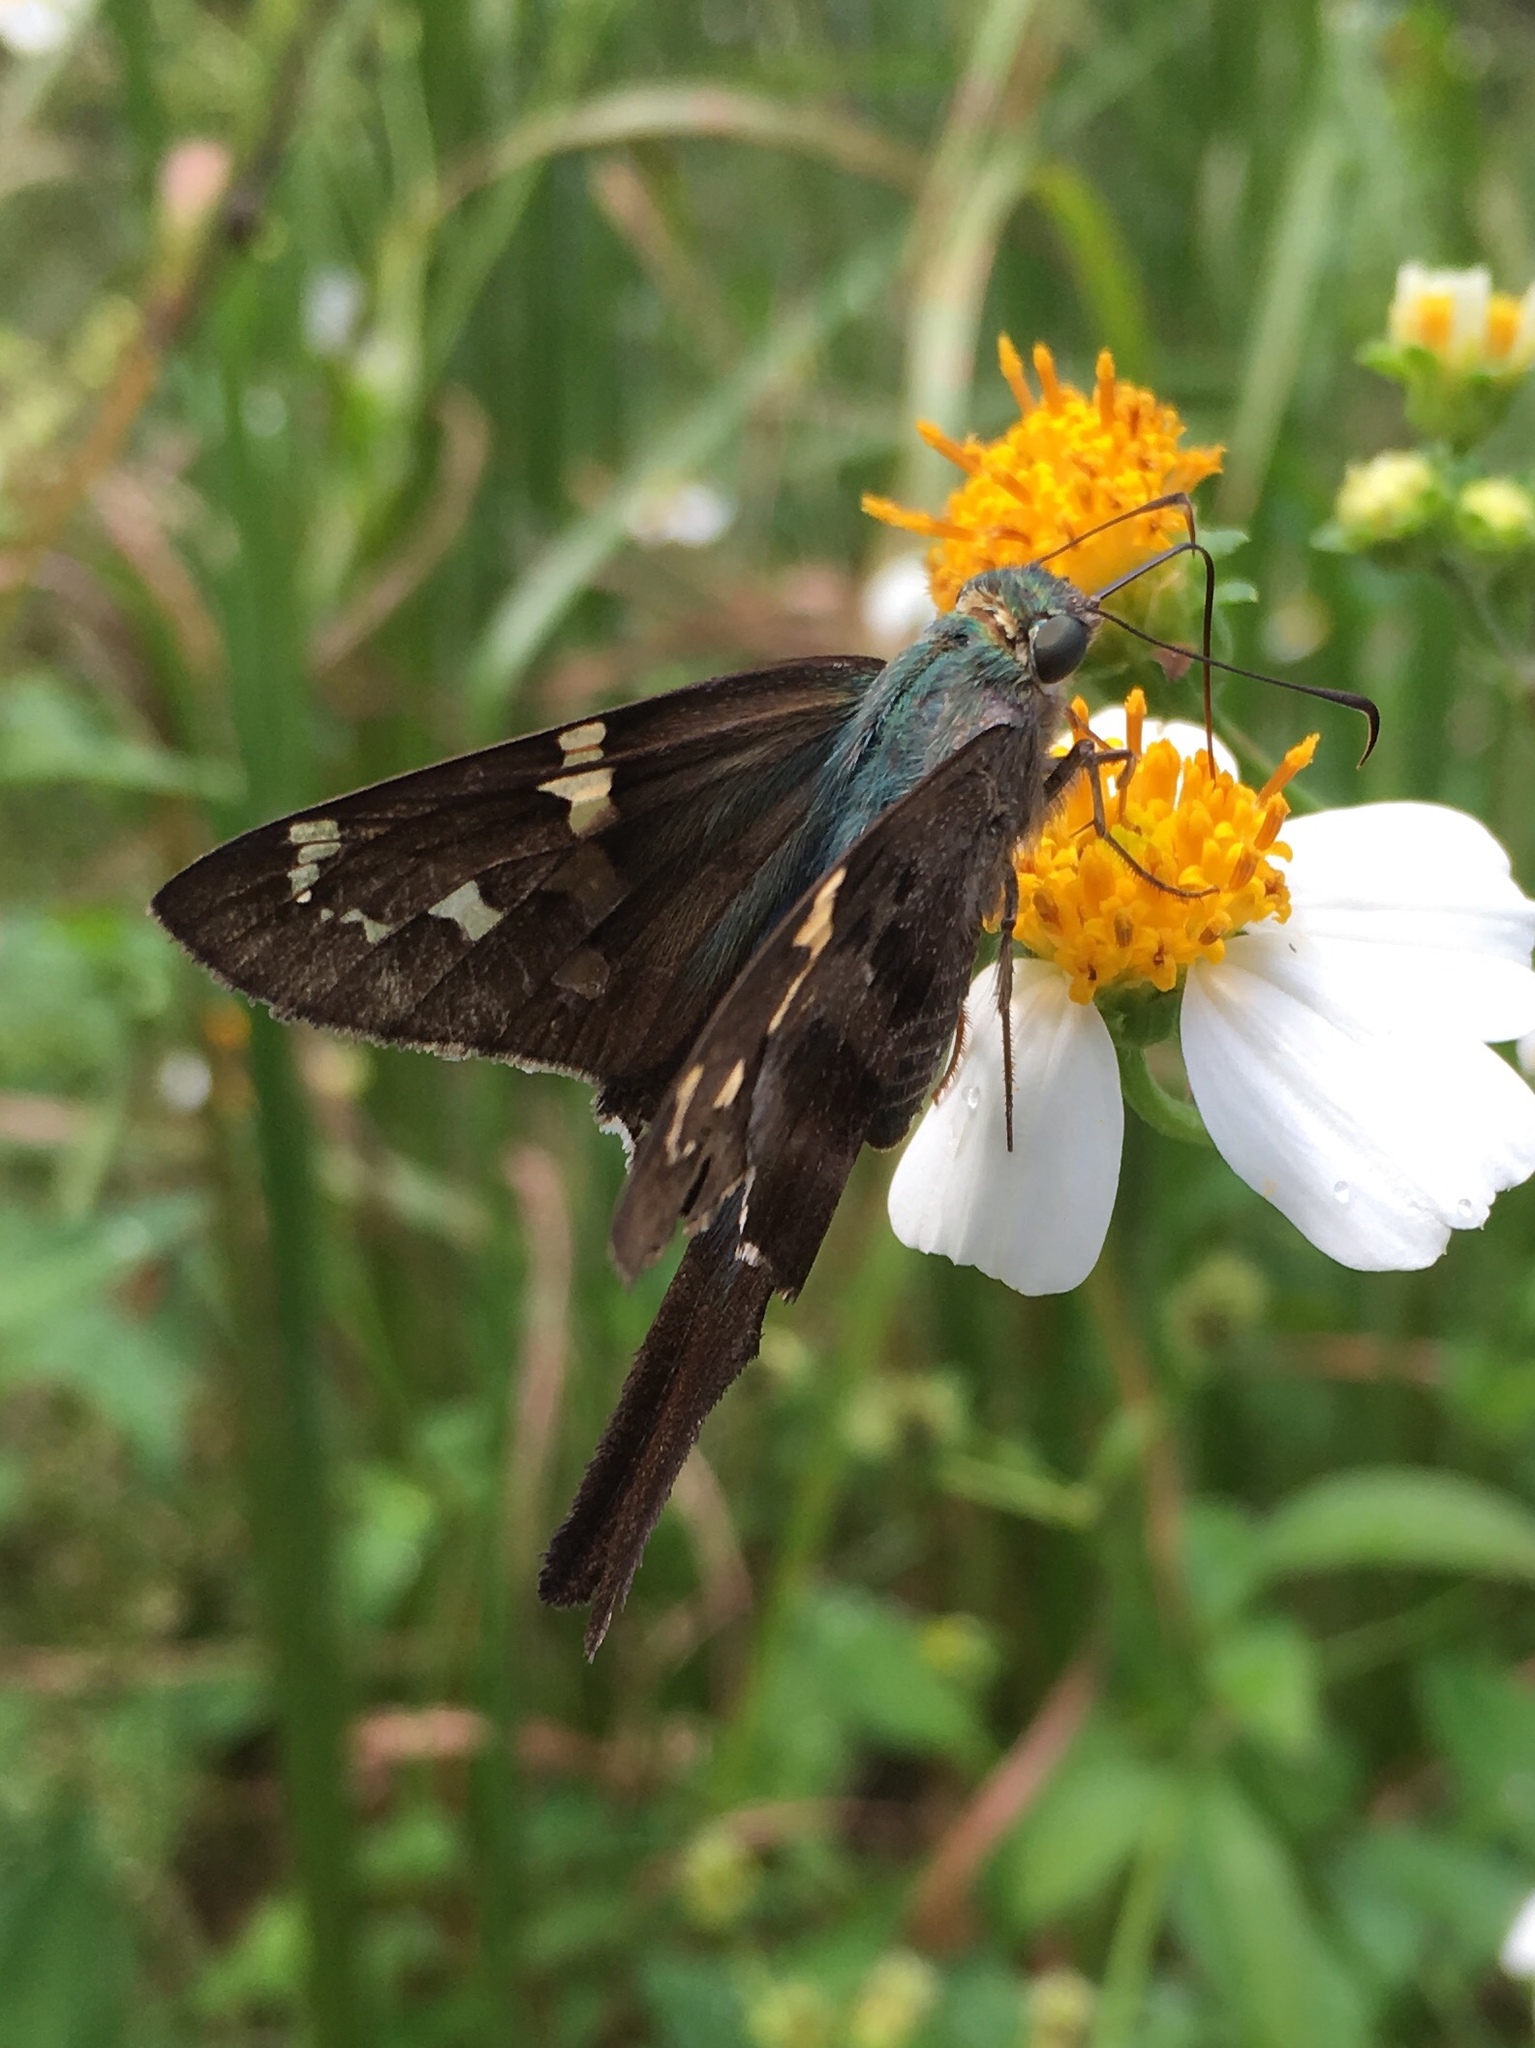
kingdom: Animalia
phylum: Arthropoda
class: Insecta
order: Lepidoptera
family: Hesperiidae
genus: Urbanus
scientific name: Urbanus proteus
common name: Long-tailed skipper
